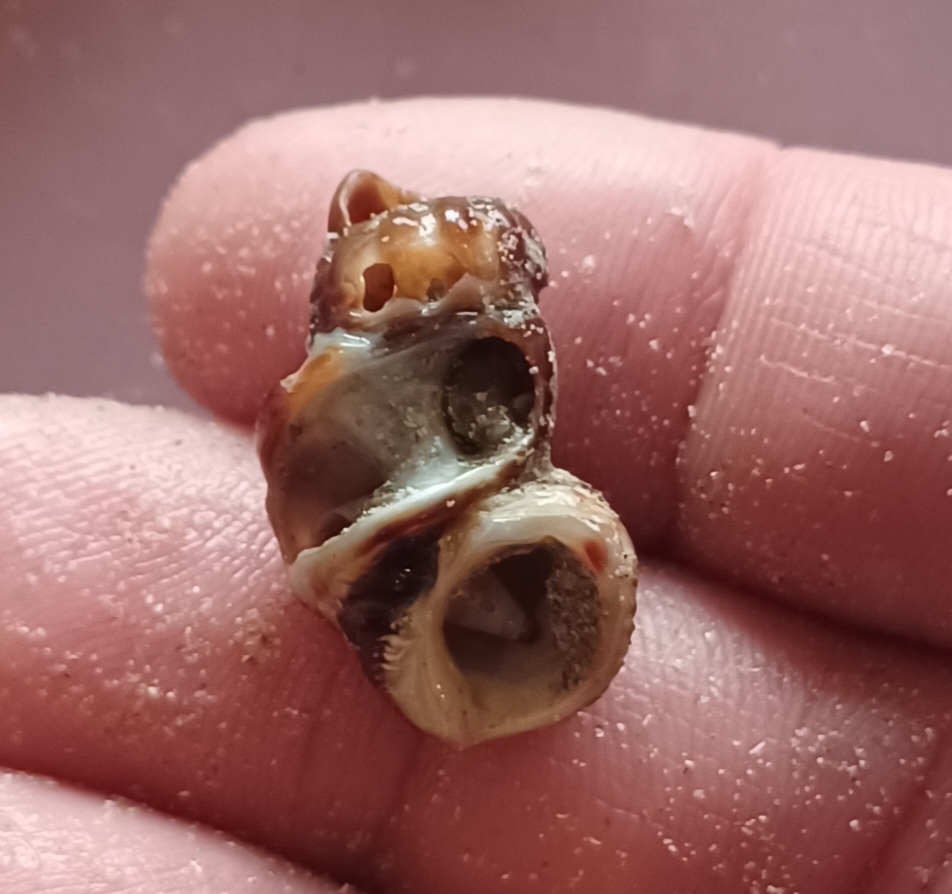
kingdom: Animalia
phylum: Mollusca
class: Gastropoda
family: Batillariidae
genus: Batillaria
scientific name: Batillaria australis
